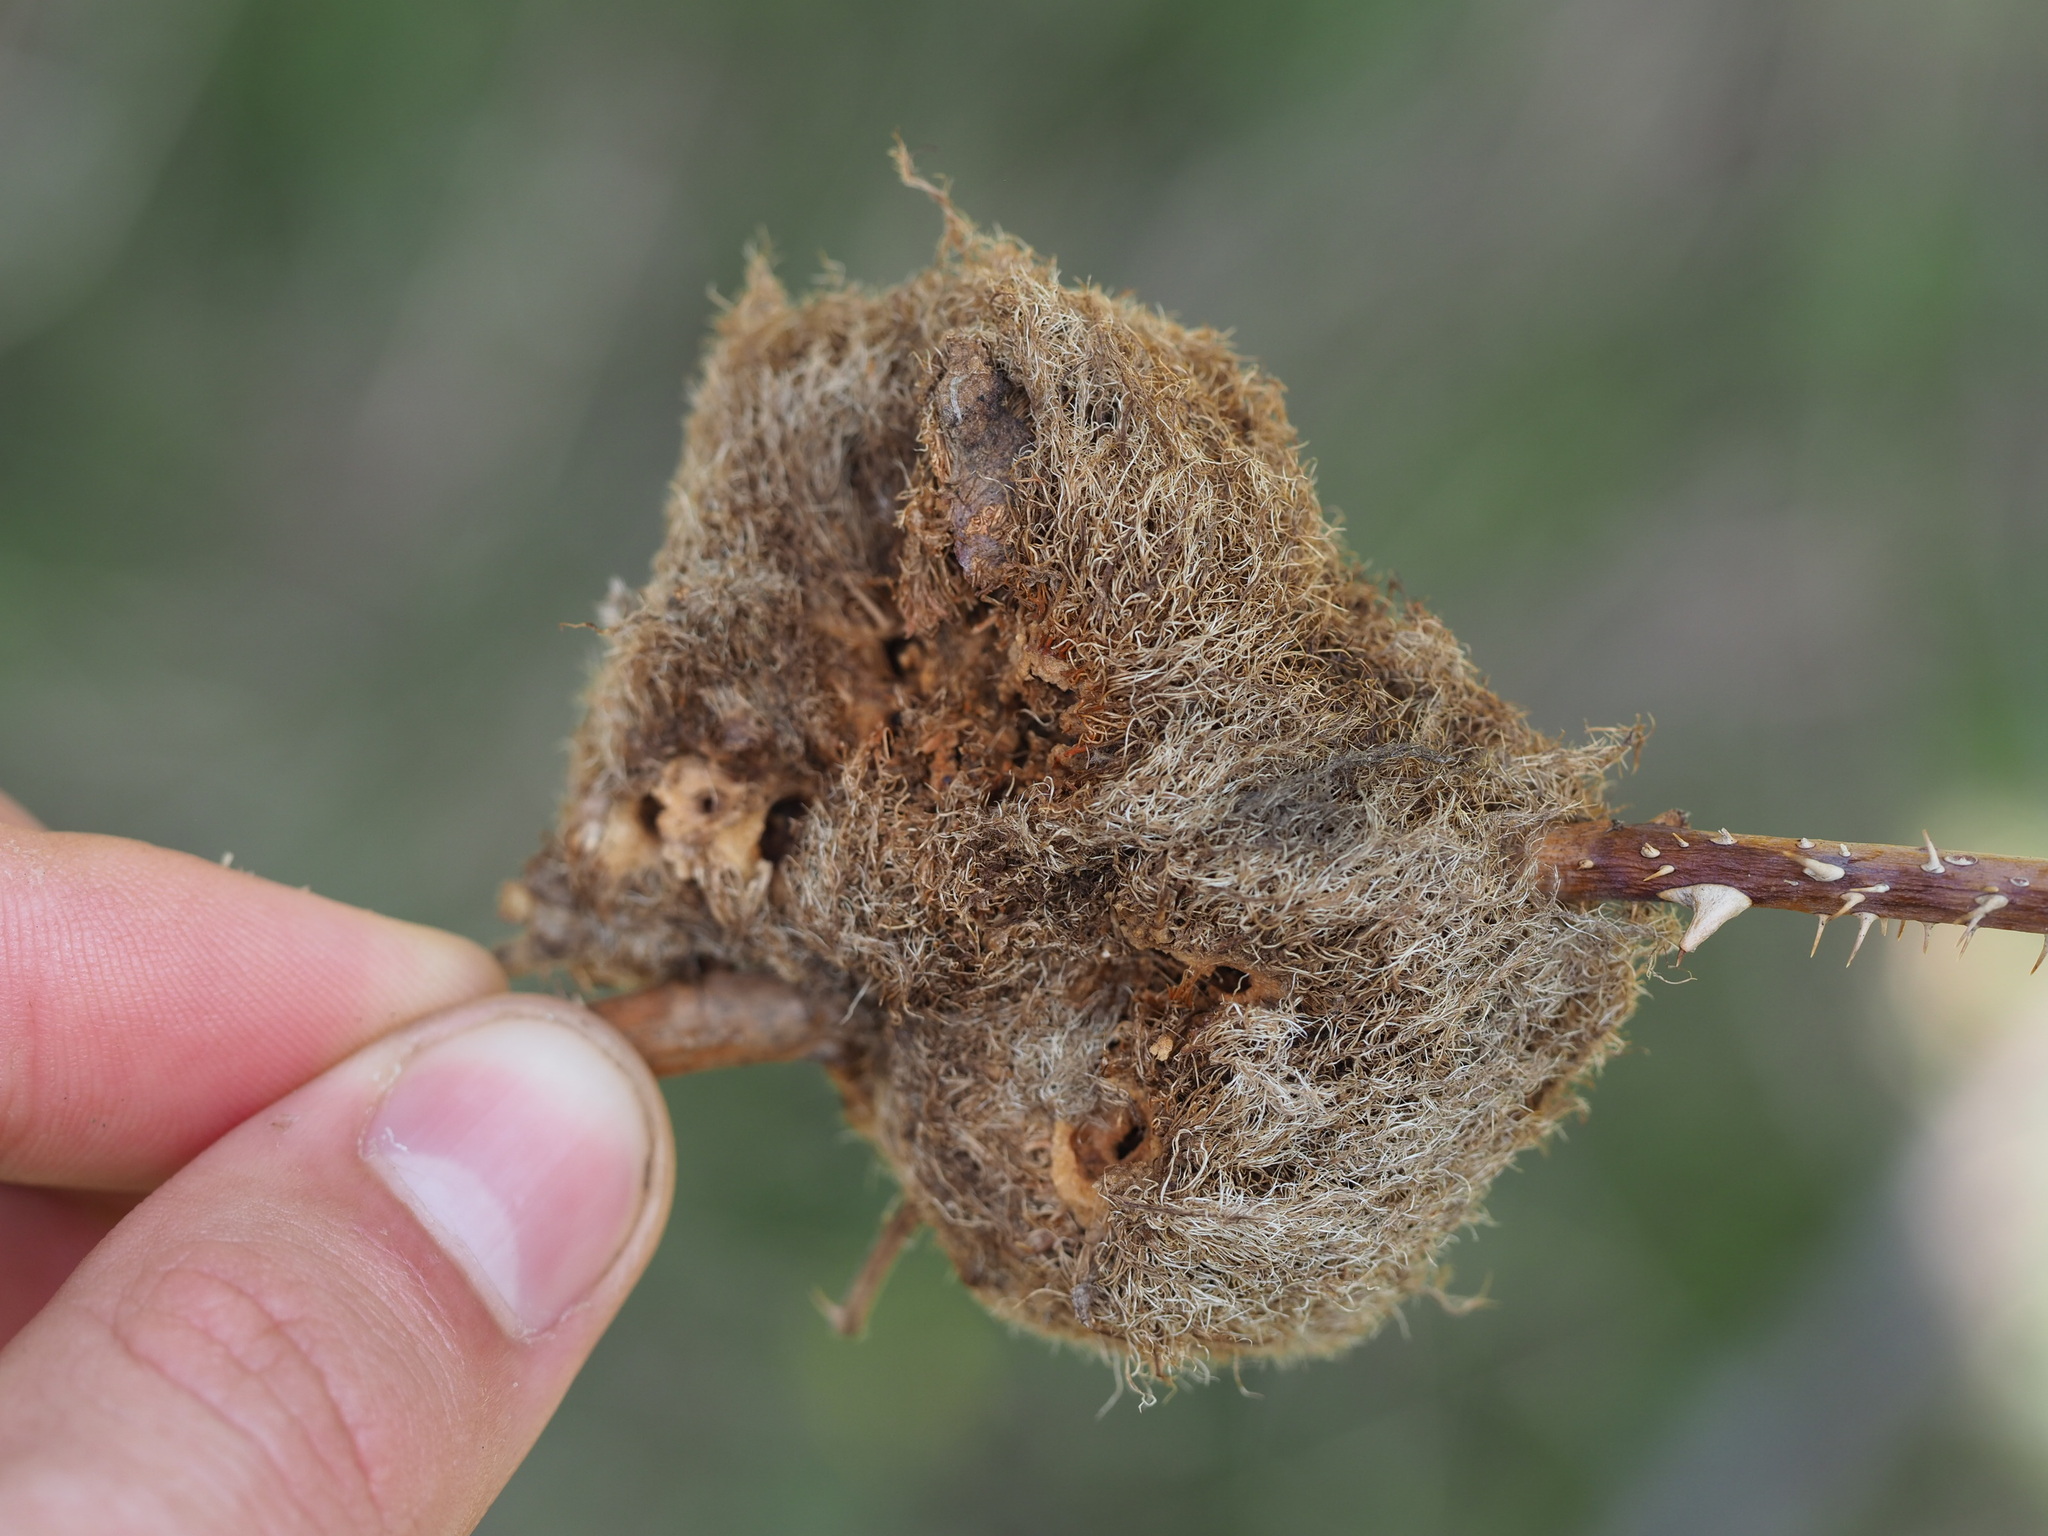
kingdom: Animalia
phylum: Arthropoda
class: Insecta
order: Hymenoptera
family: Cynipidae
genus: Diplolepis
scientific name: Diplolepis rosae
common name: Bedeguar gall
